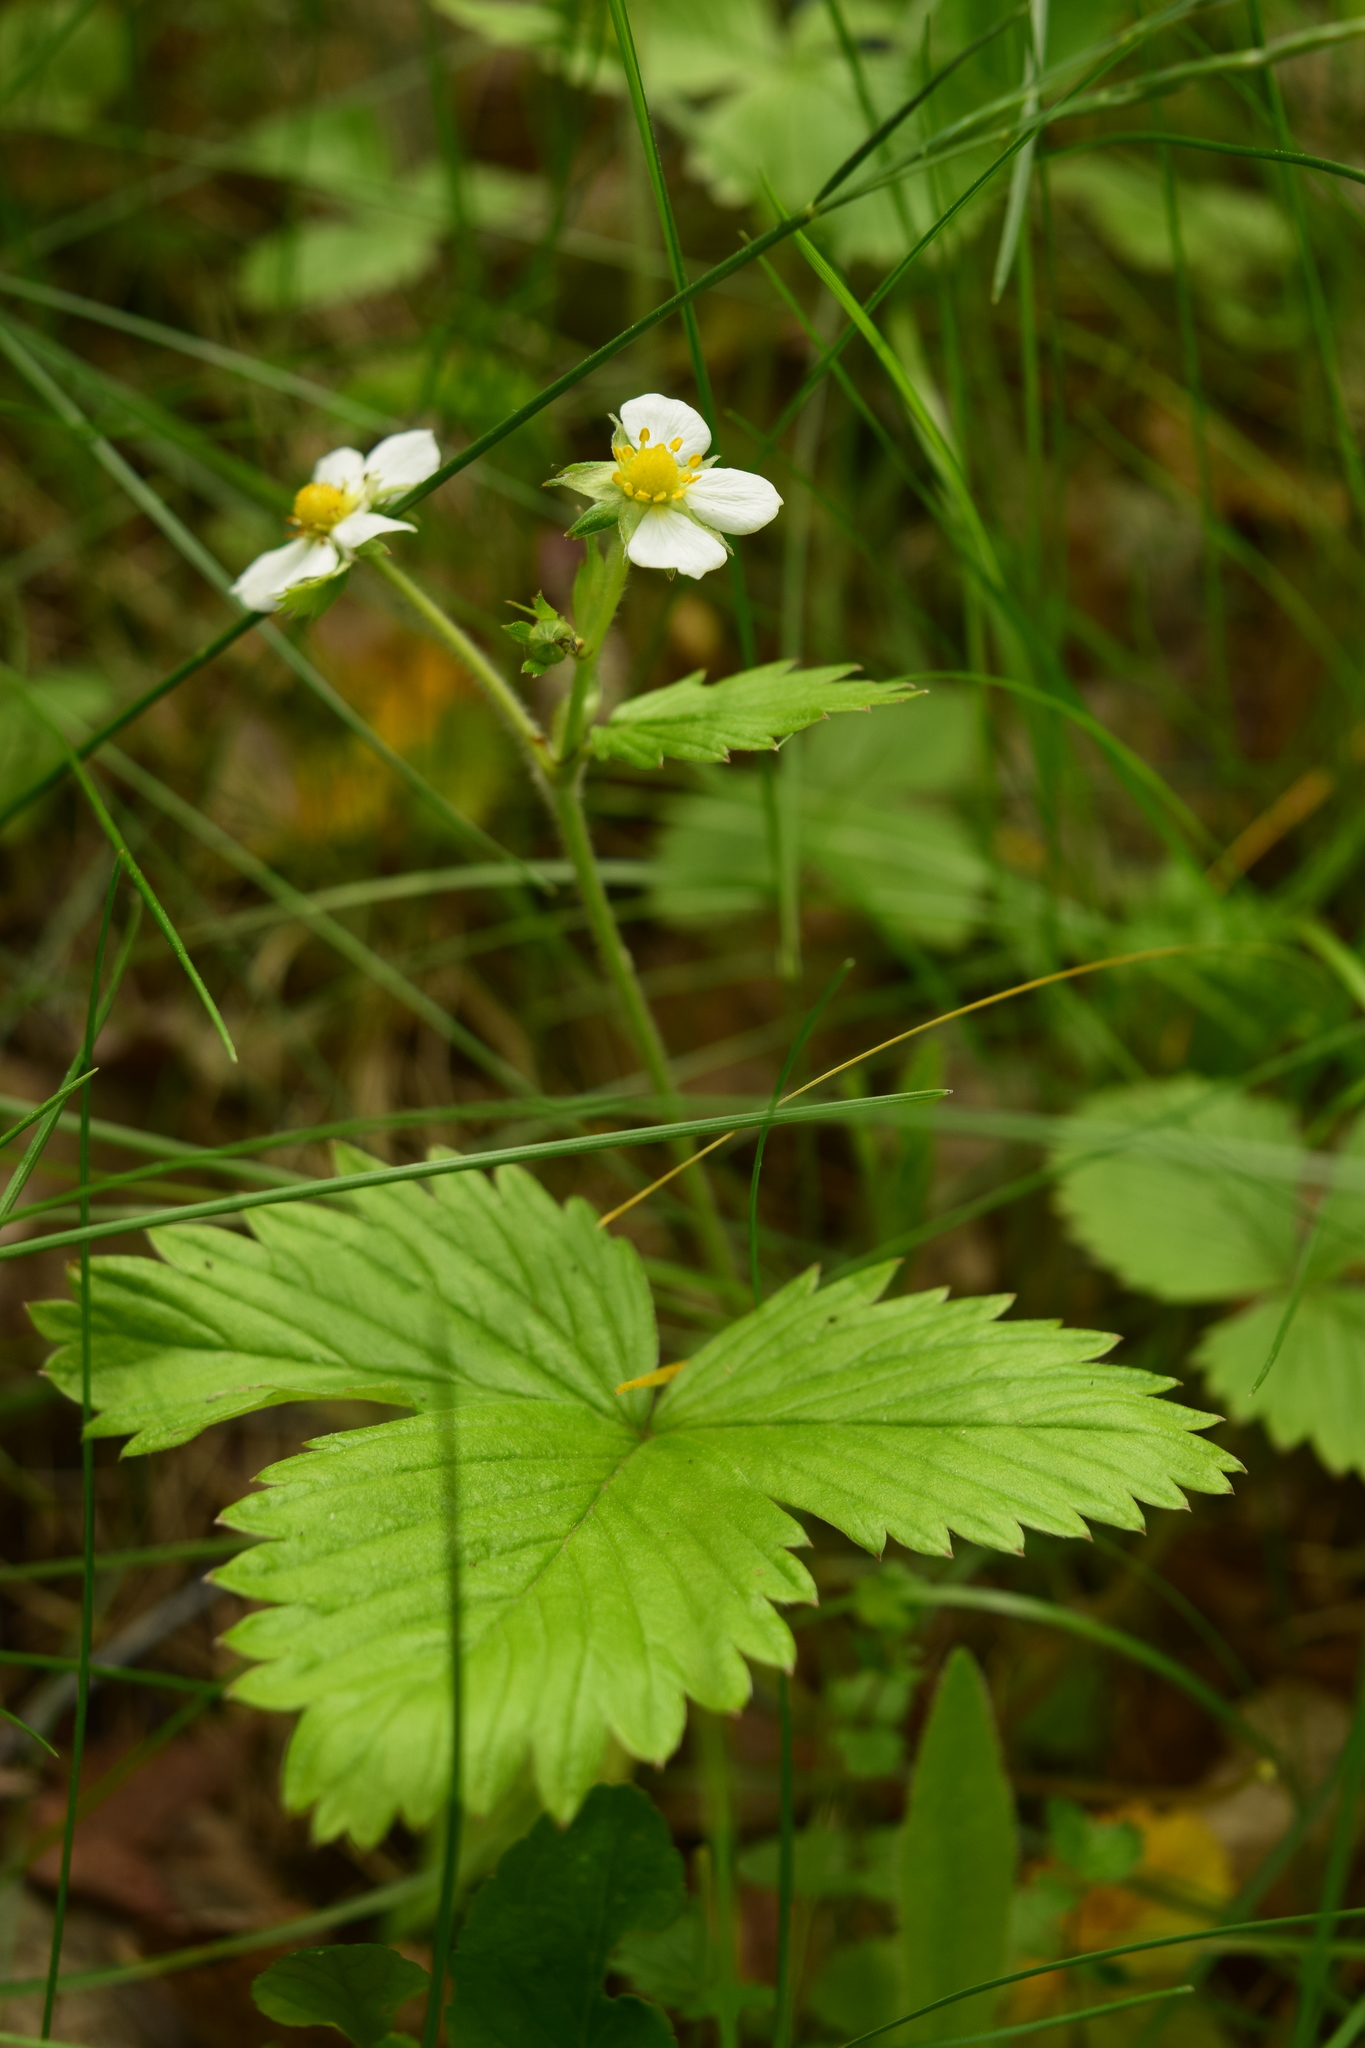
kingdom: Plantae
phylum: Tracheophyta
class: Magnoliopsida
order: Rosales
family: Rosaceae
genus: Fragaria
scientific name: Fragaria vesca
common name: Wild strawberry
